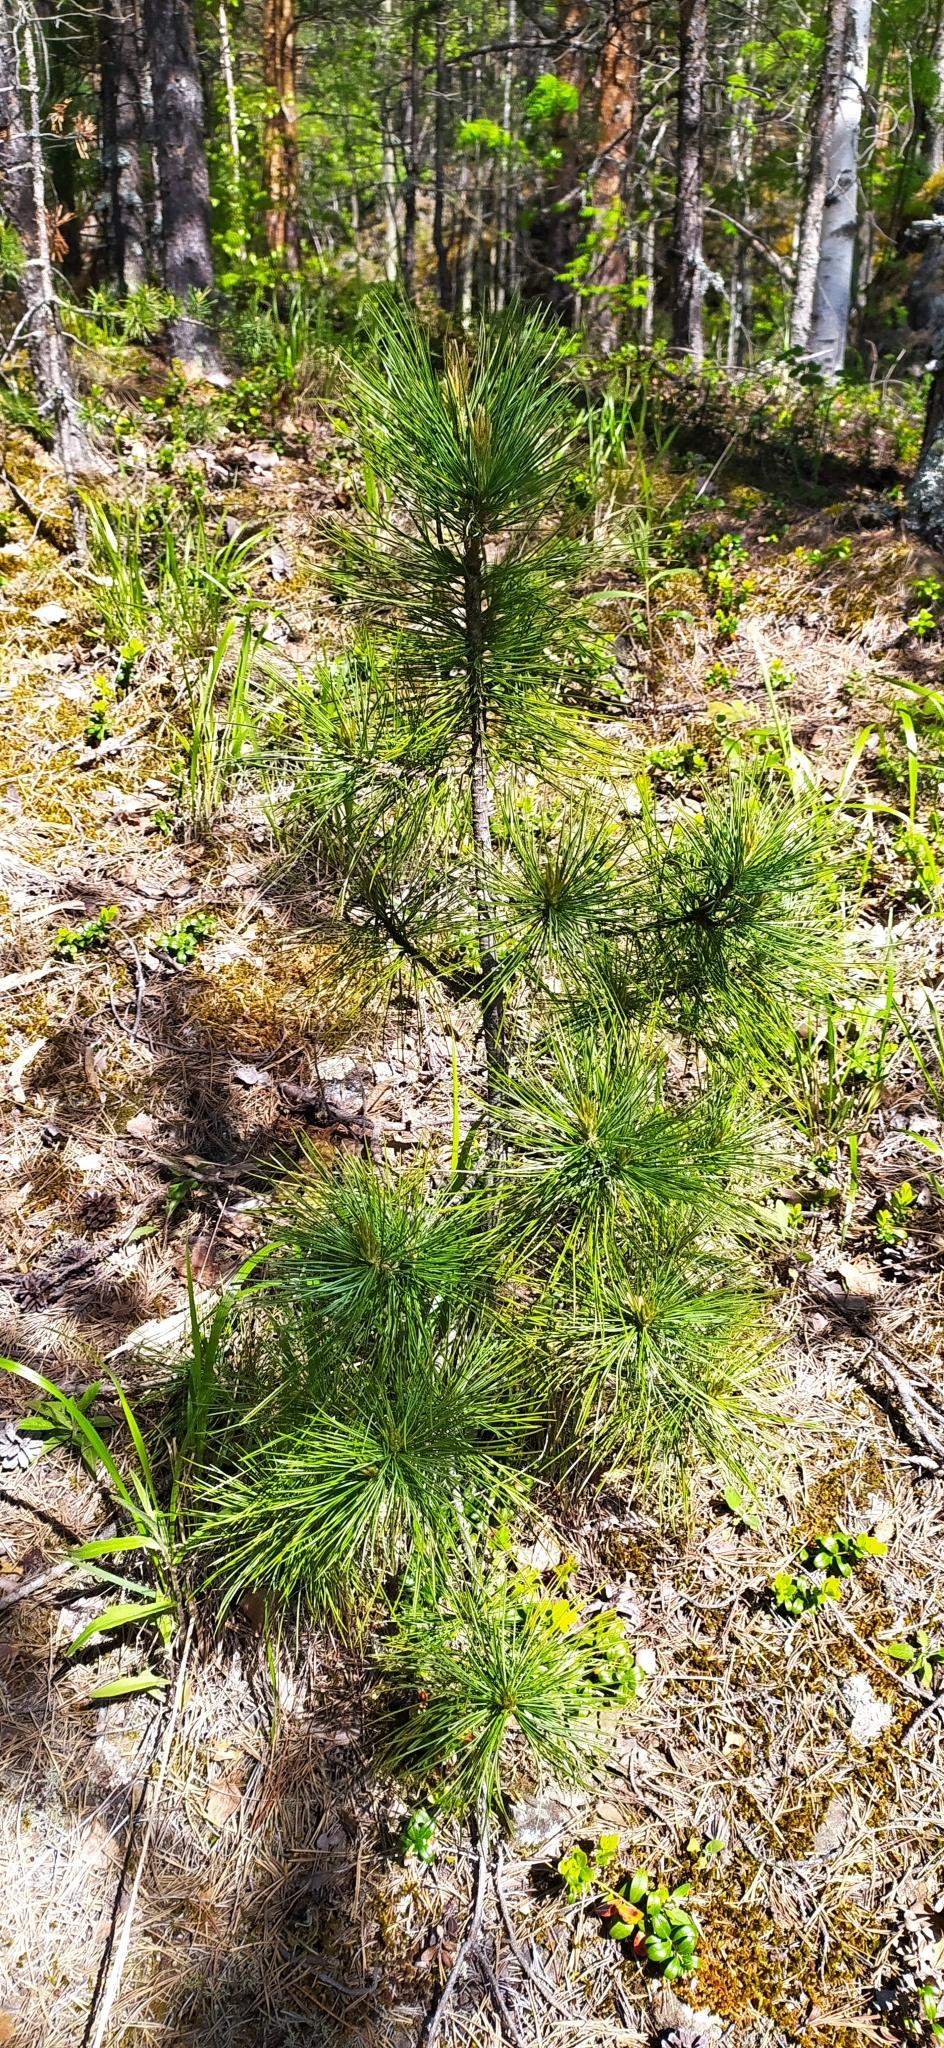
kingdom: Plantae
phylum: Tracheophyta
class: Pinopsida
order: Pinales
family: Pinaceae
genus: Pinus
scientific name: Pinus sibirica
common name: Siberian pine
